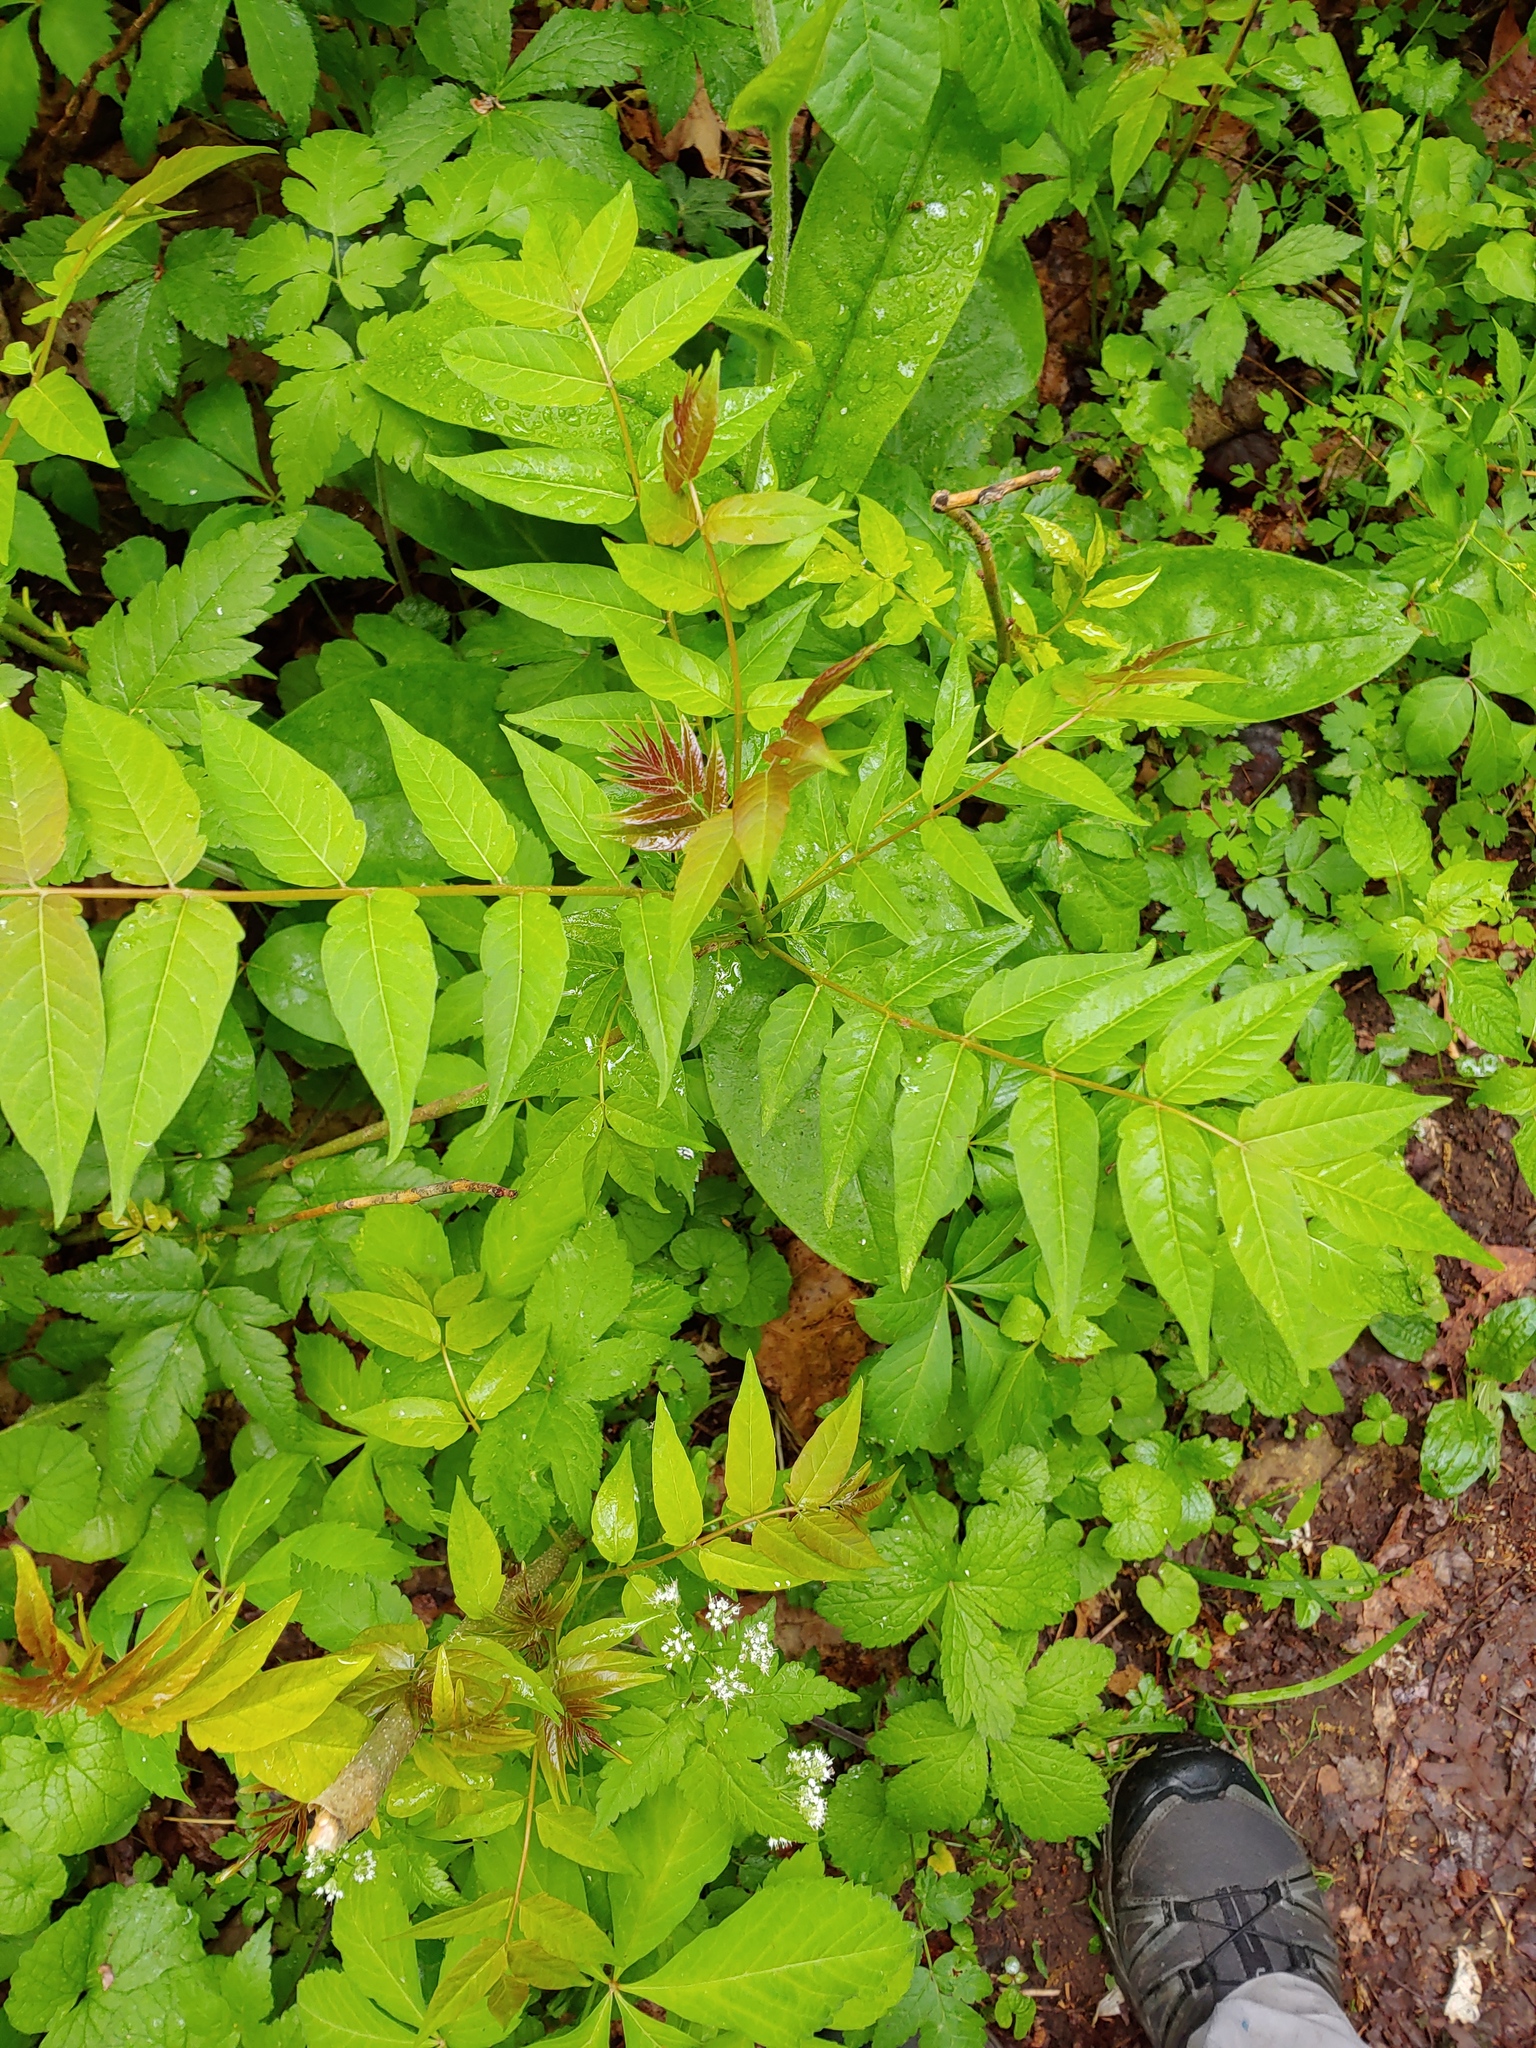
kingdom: Plantae
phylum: Tracheophyta
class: Magnoliopsida
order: Sapindales
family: Simaroubaceae
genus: Ailanthus
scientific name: Ailanthus altissima
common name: Tree-of-heaven
